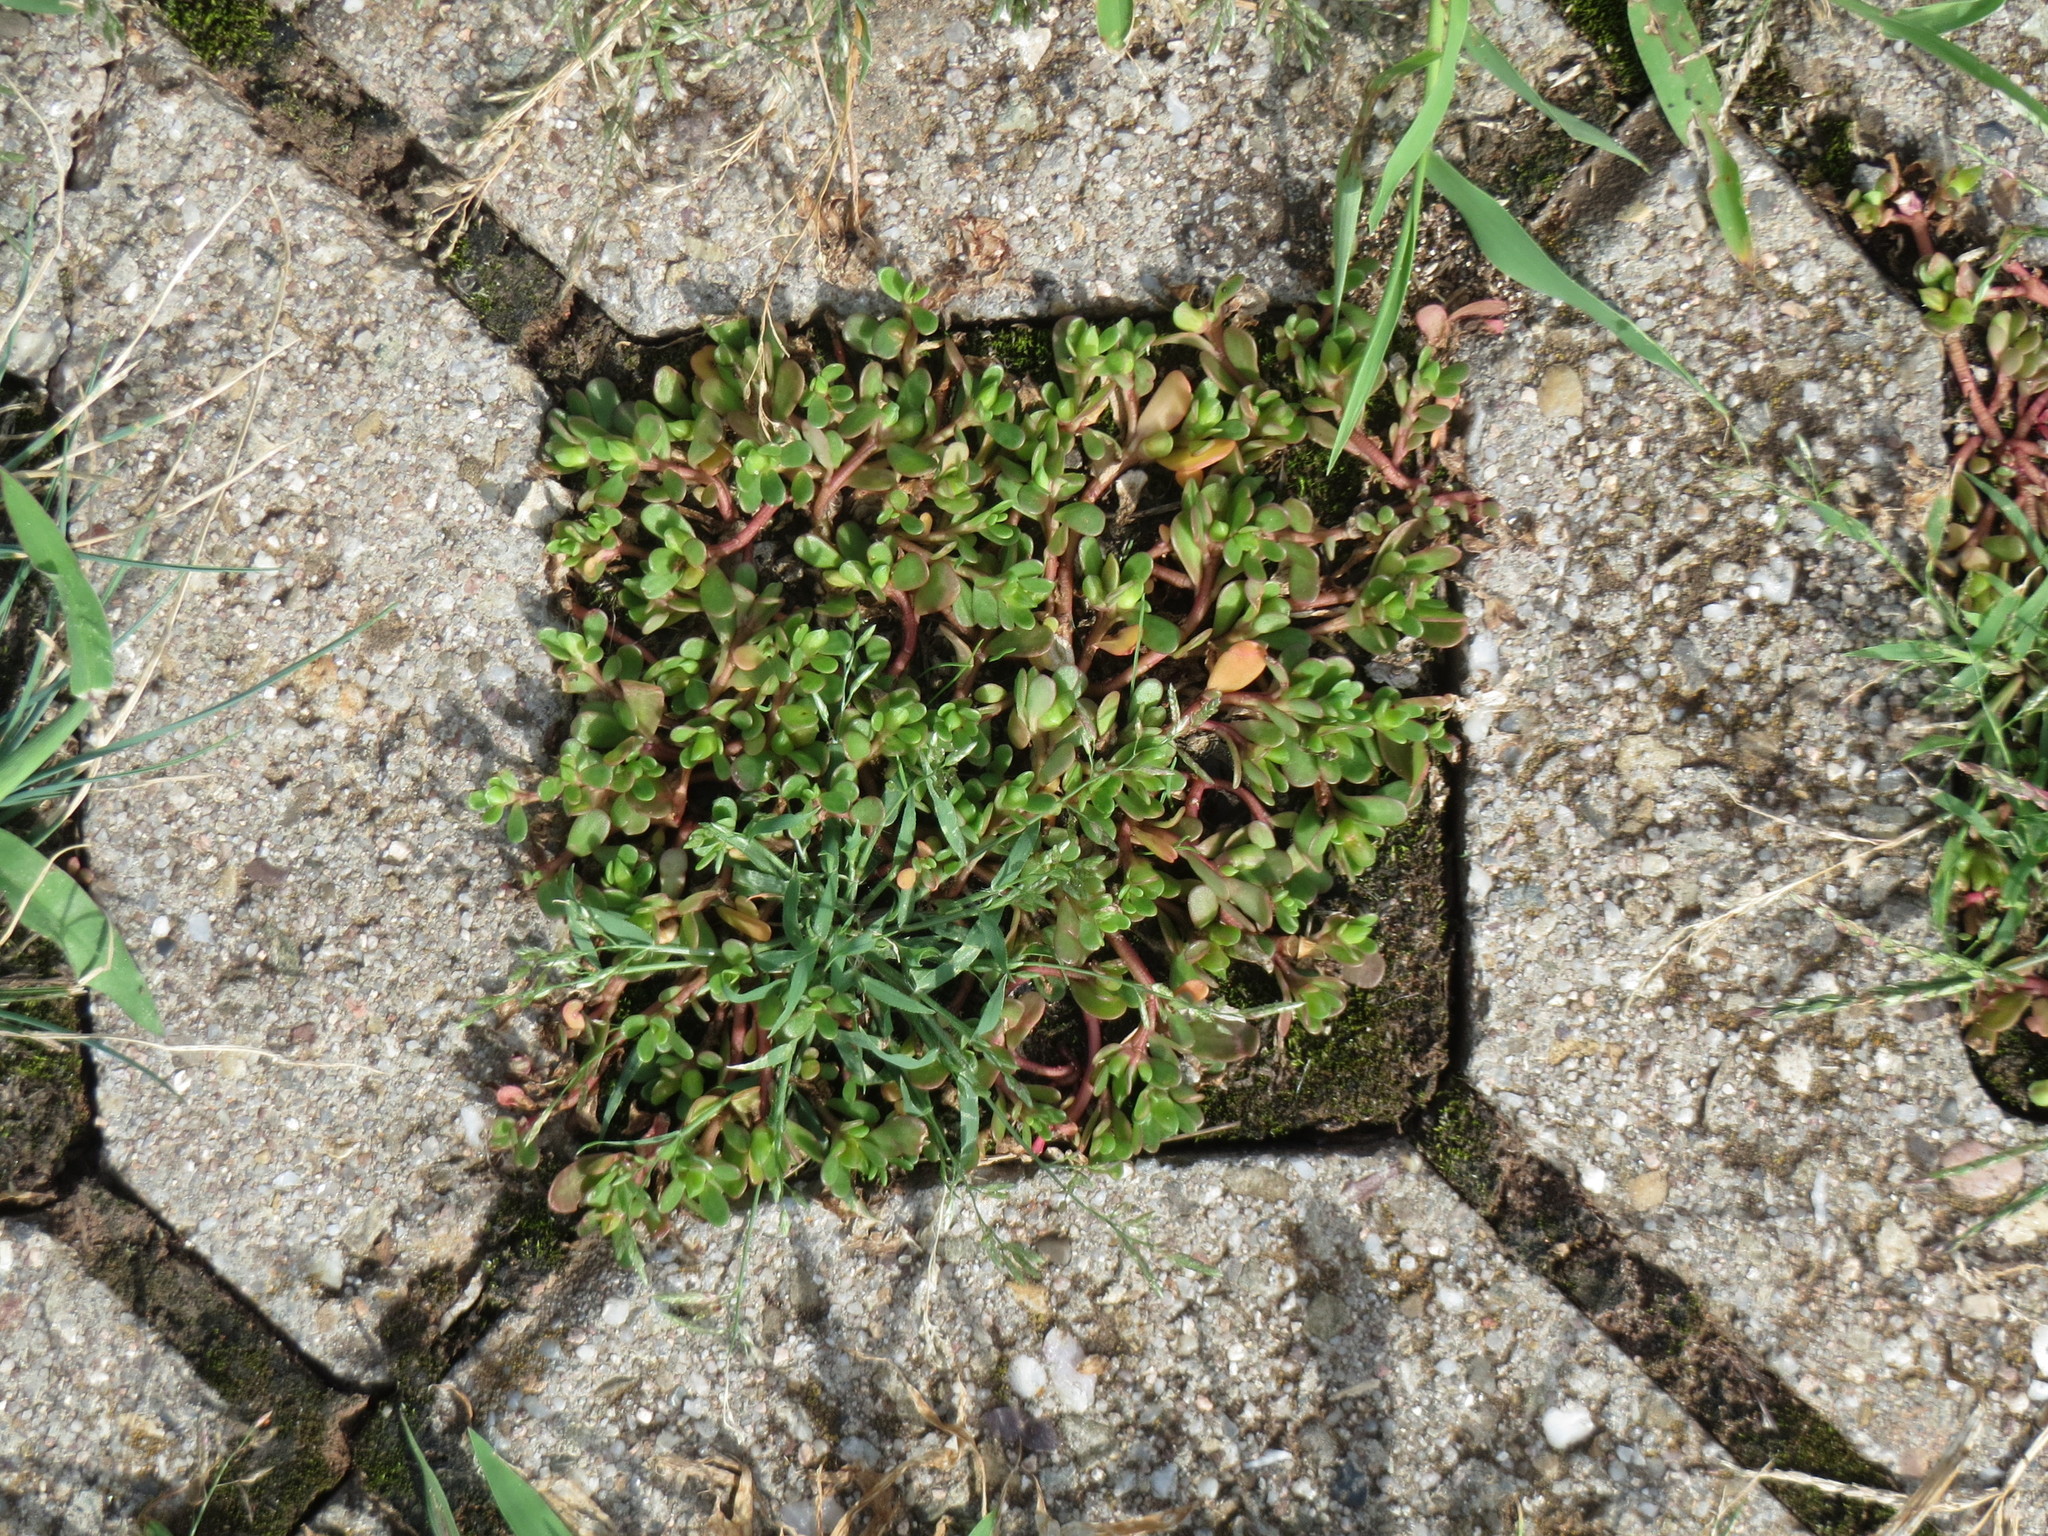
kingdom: Plantae
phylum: Tracheophyta
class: Magnoliopsida
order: Caryophyllales
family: Portulacaceae
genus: Portulaca
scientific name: Portulaca oleracea
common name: Common purslane
